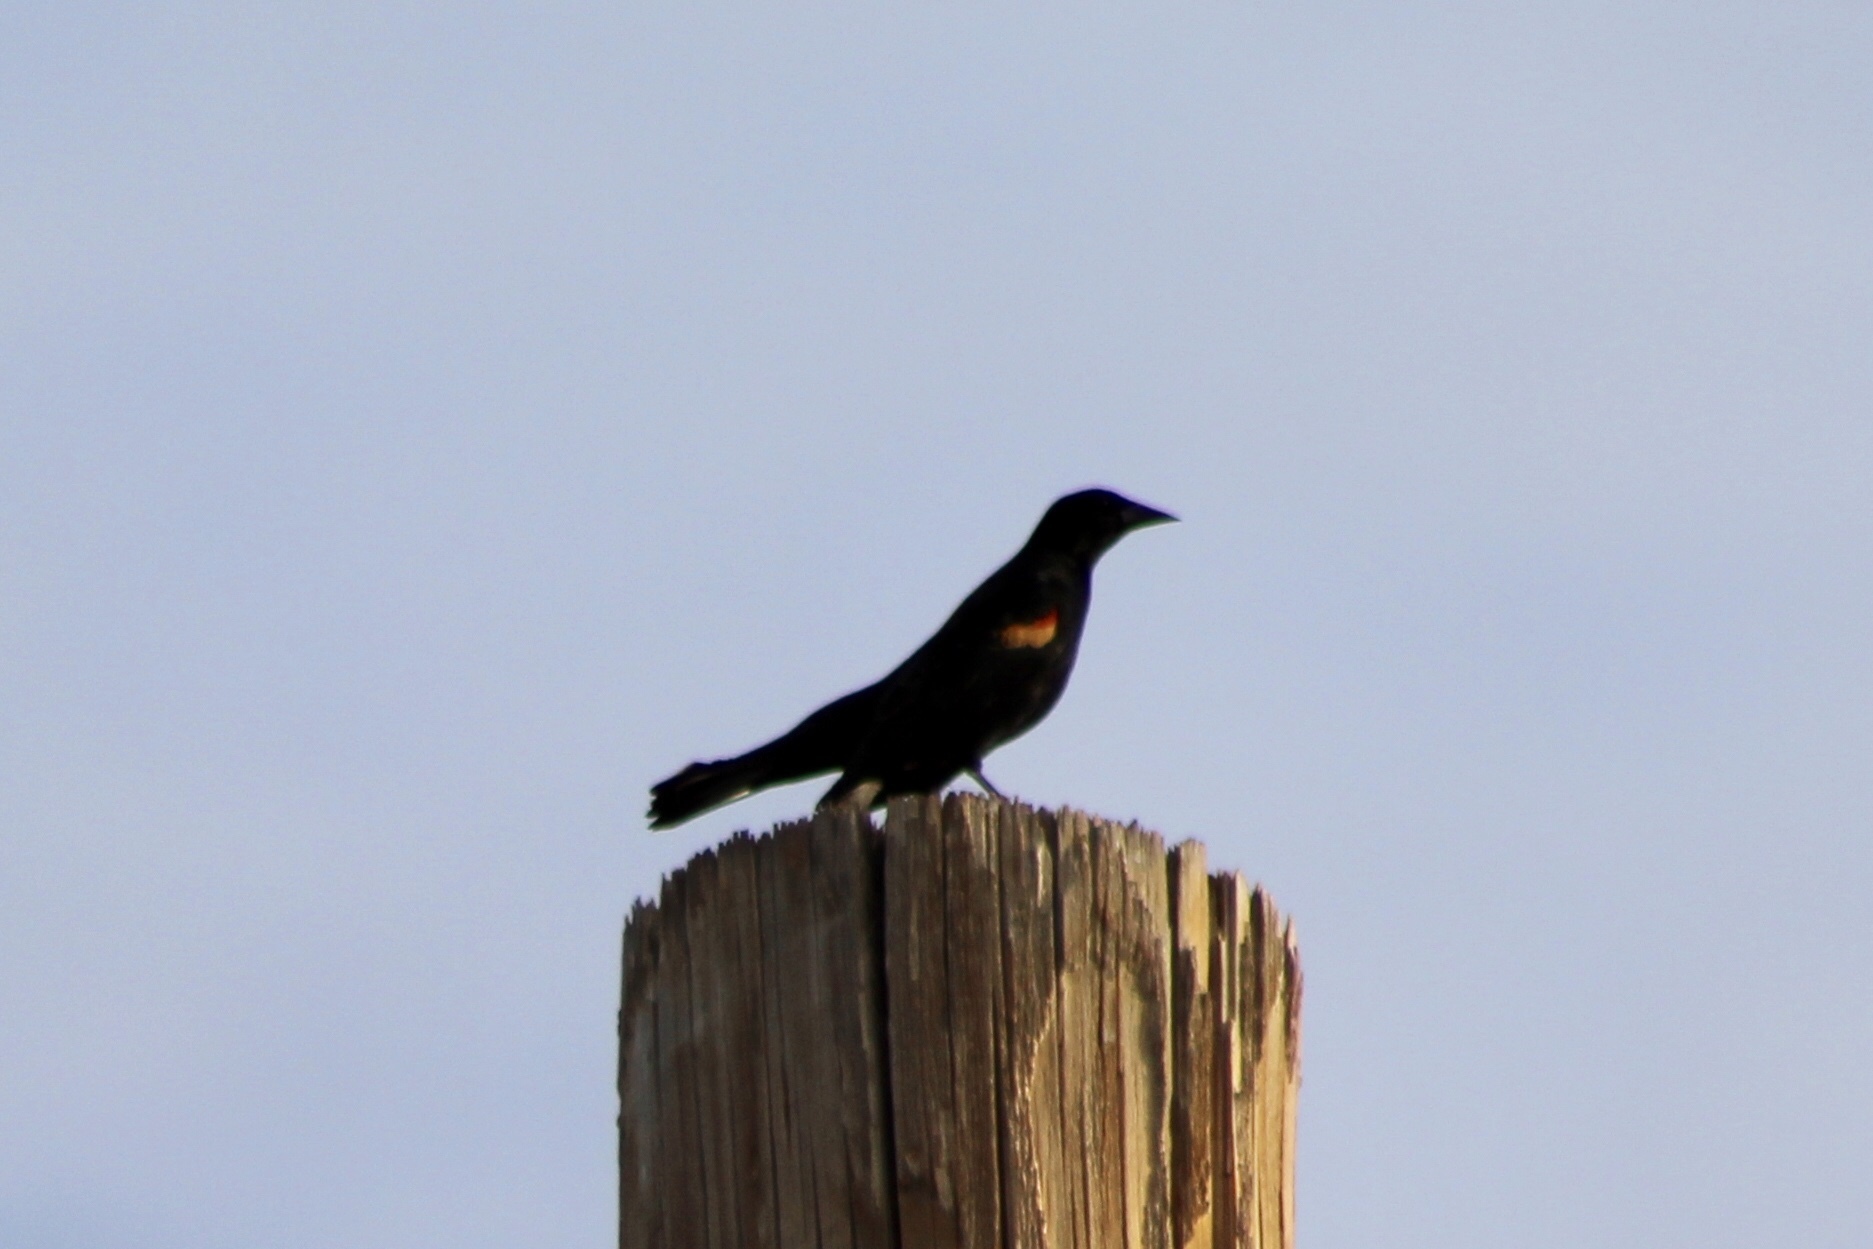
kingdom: Animalia
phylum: Chordata
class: Aves
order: Passeriformes
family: Icteridae
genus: Agelaius
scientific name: Agelaius phoeniceus
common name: Red-winged blackbird
